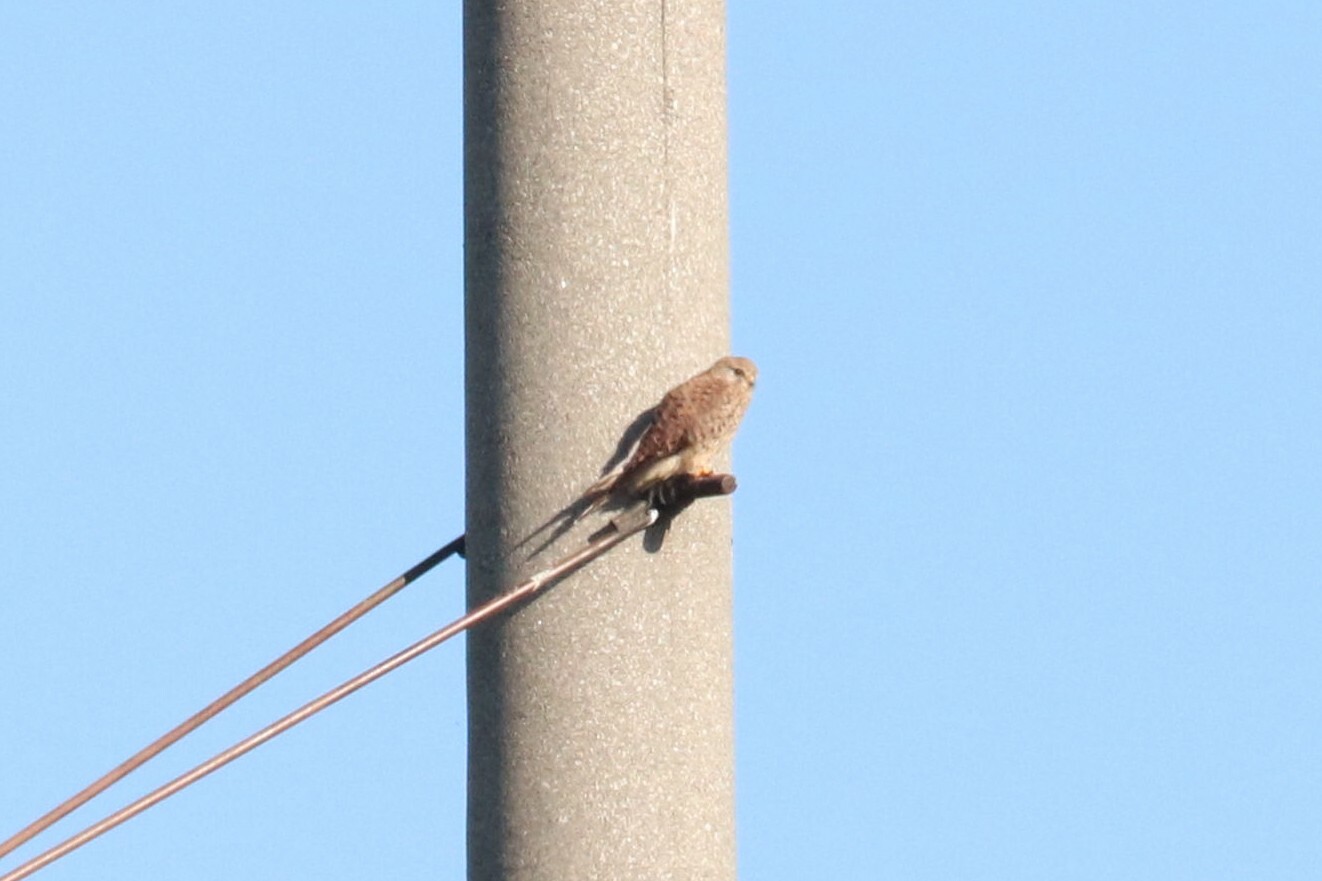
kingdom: Animalia
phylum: Chordata
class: Aves
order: Falconiformes
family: Falconidae
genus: Falco
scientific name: Falco tinnunculus
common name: Common kestrel
